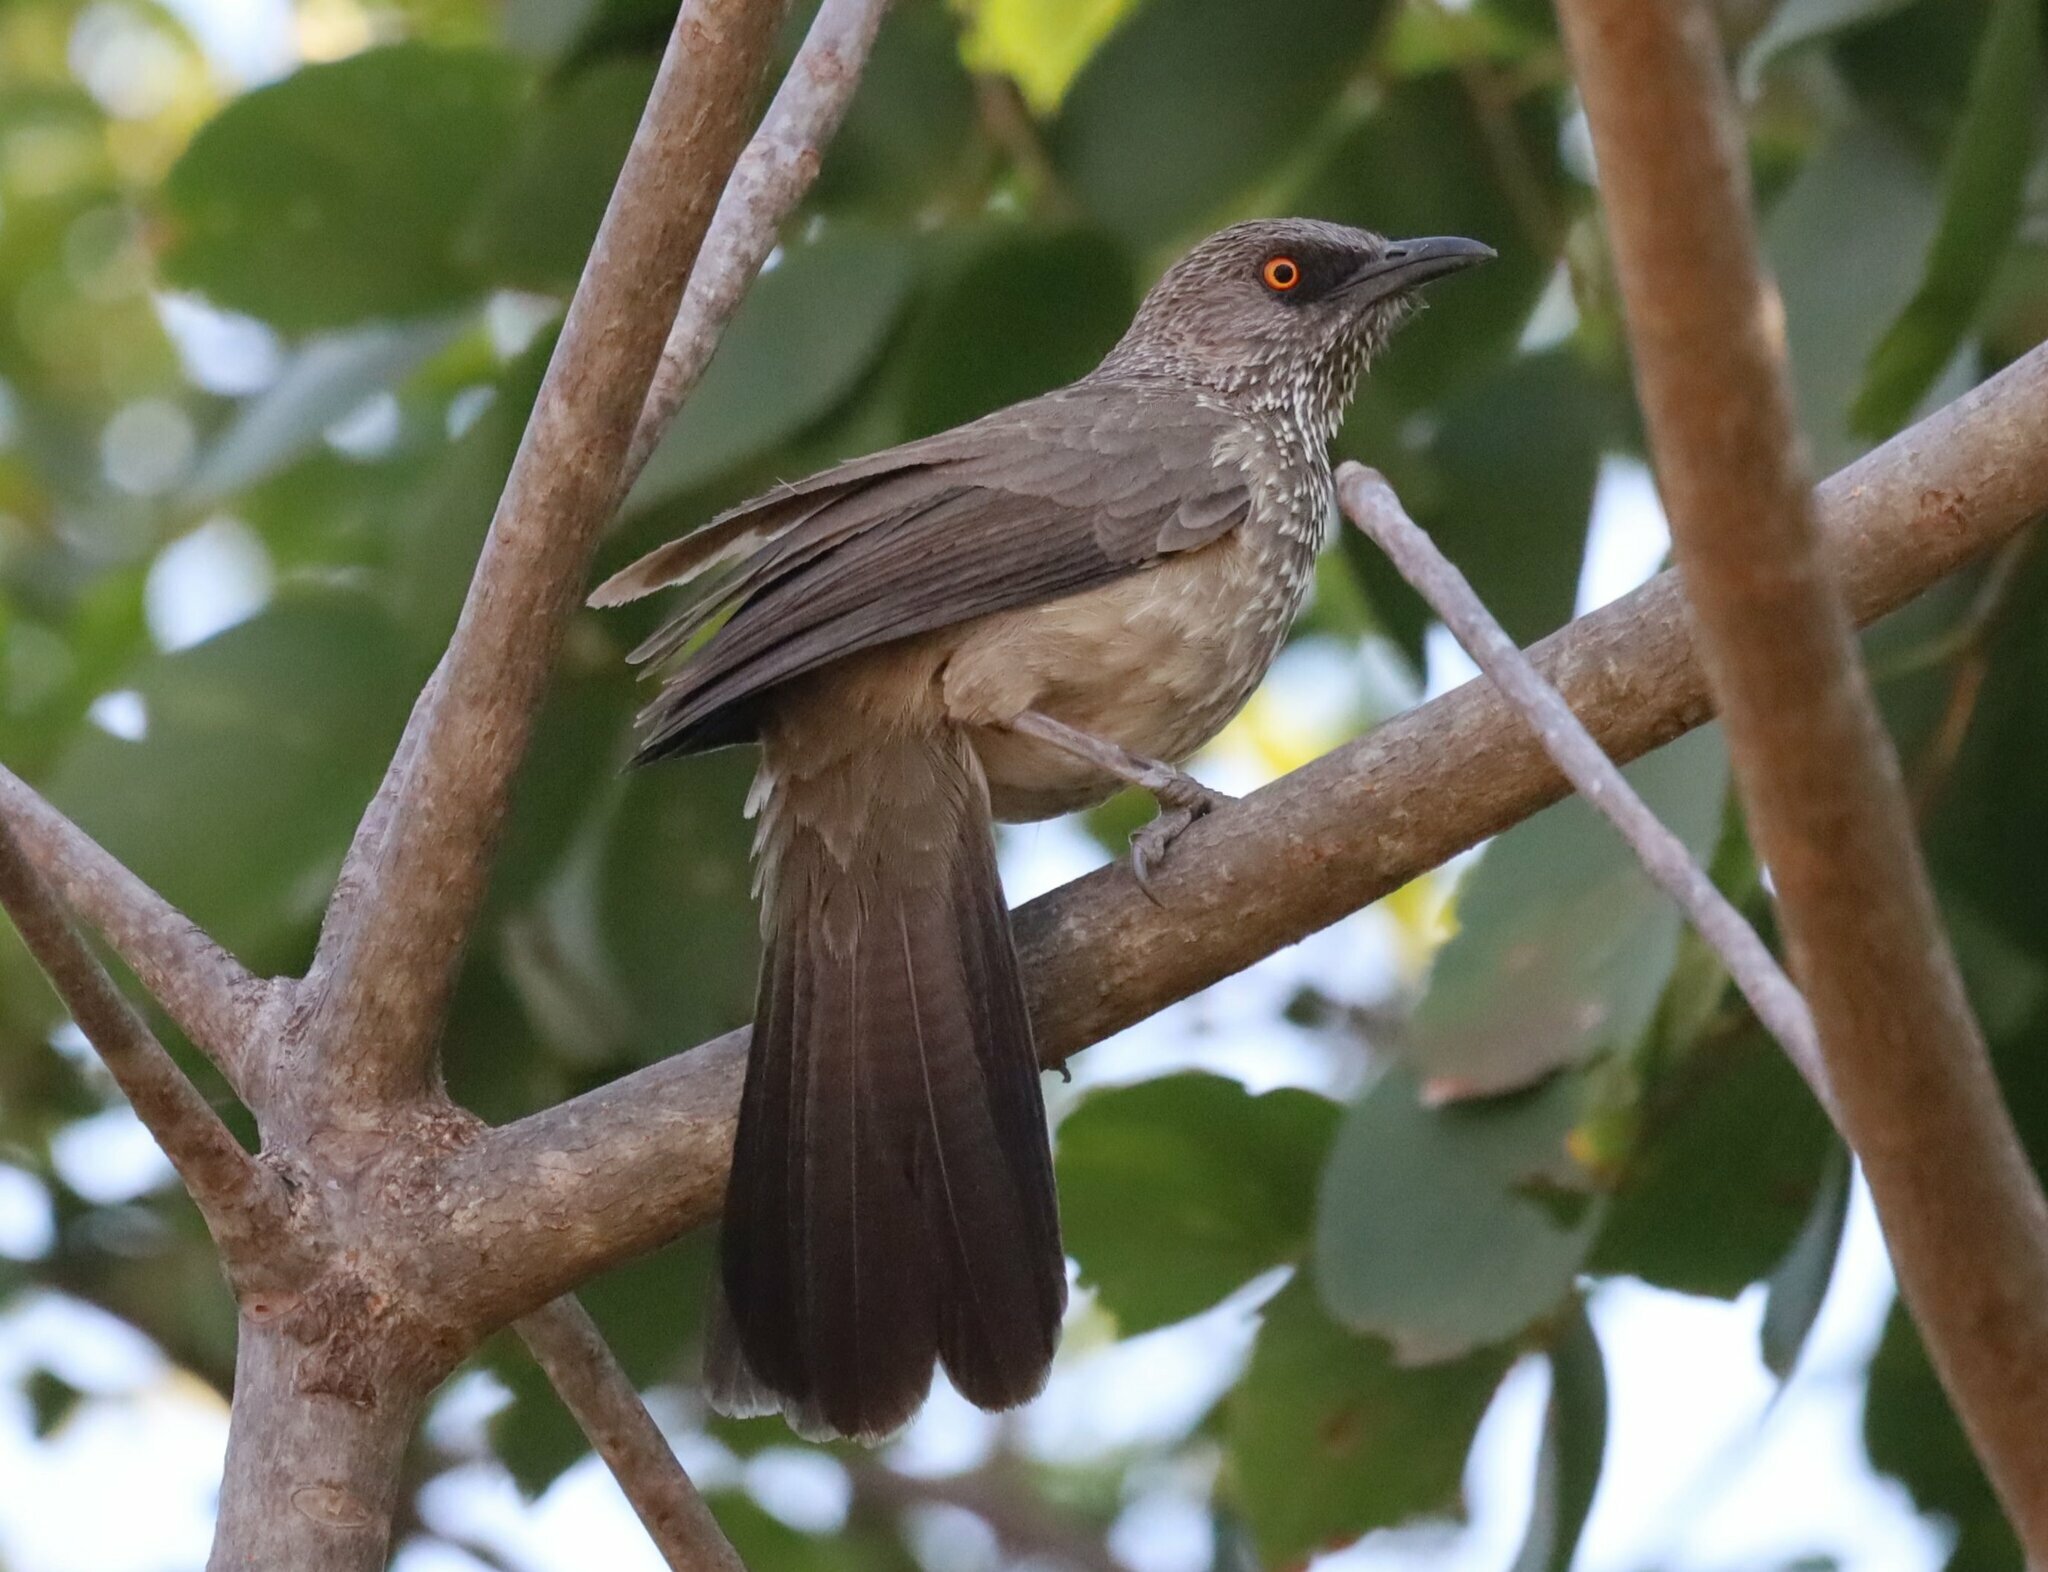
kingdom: Animalia
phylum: Chordata
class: Aves
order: Passeriformes
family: Leiothrichidae
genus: Turdoides
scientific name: Turdoides jardineii
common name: Arrow-marked babbler
